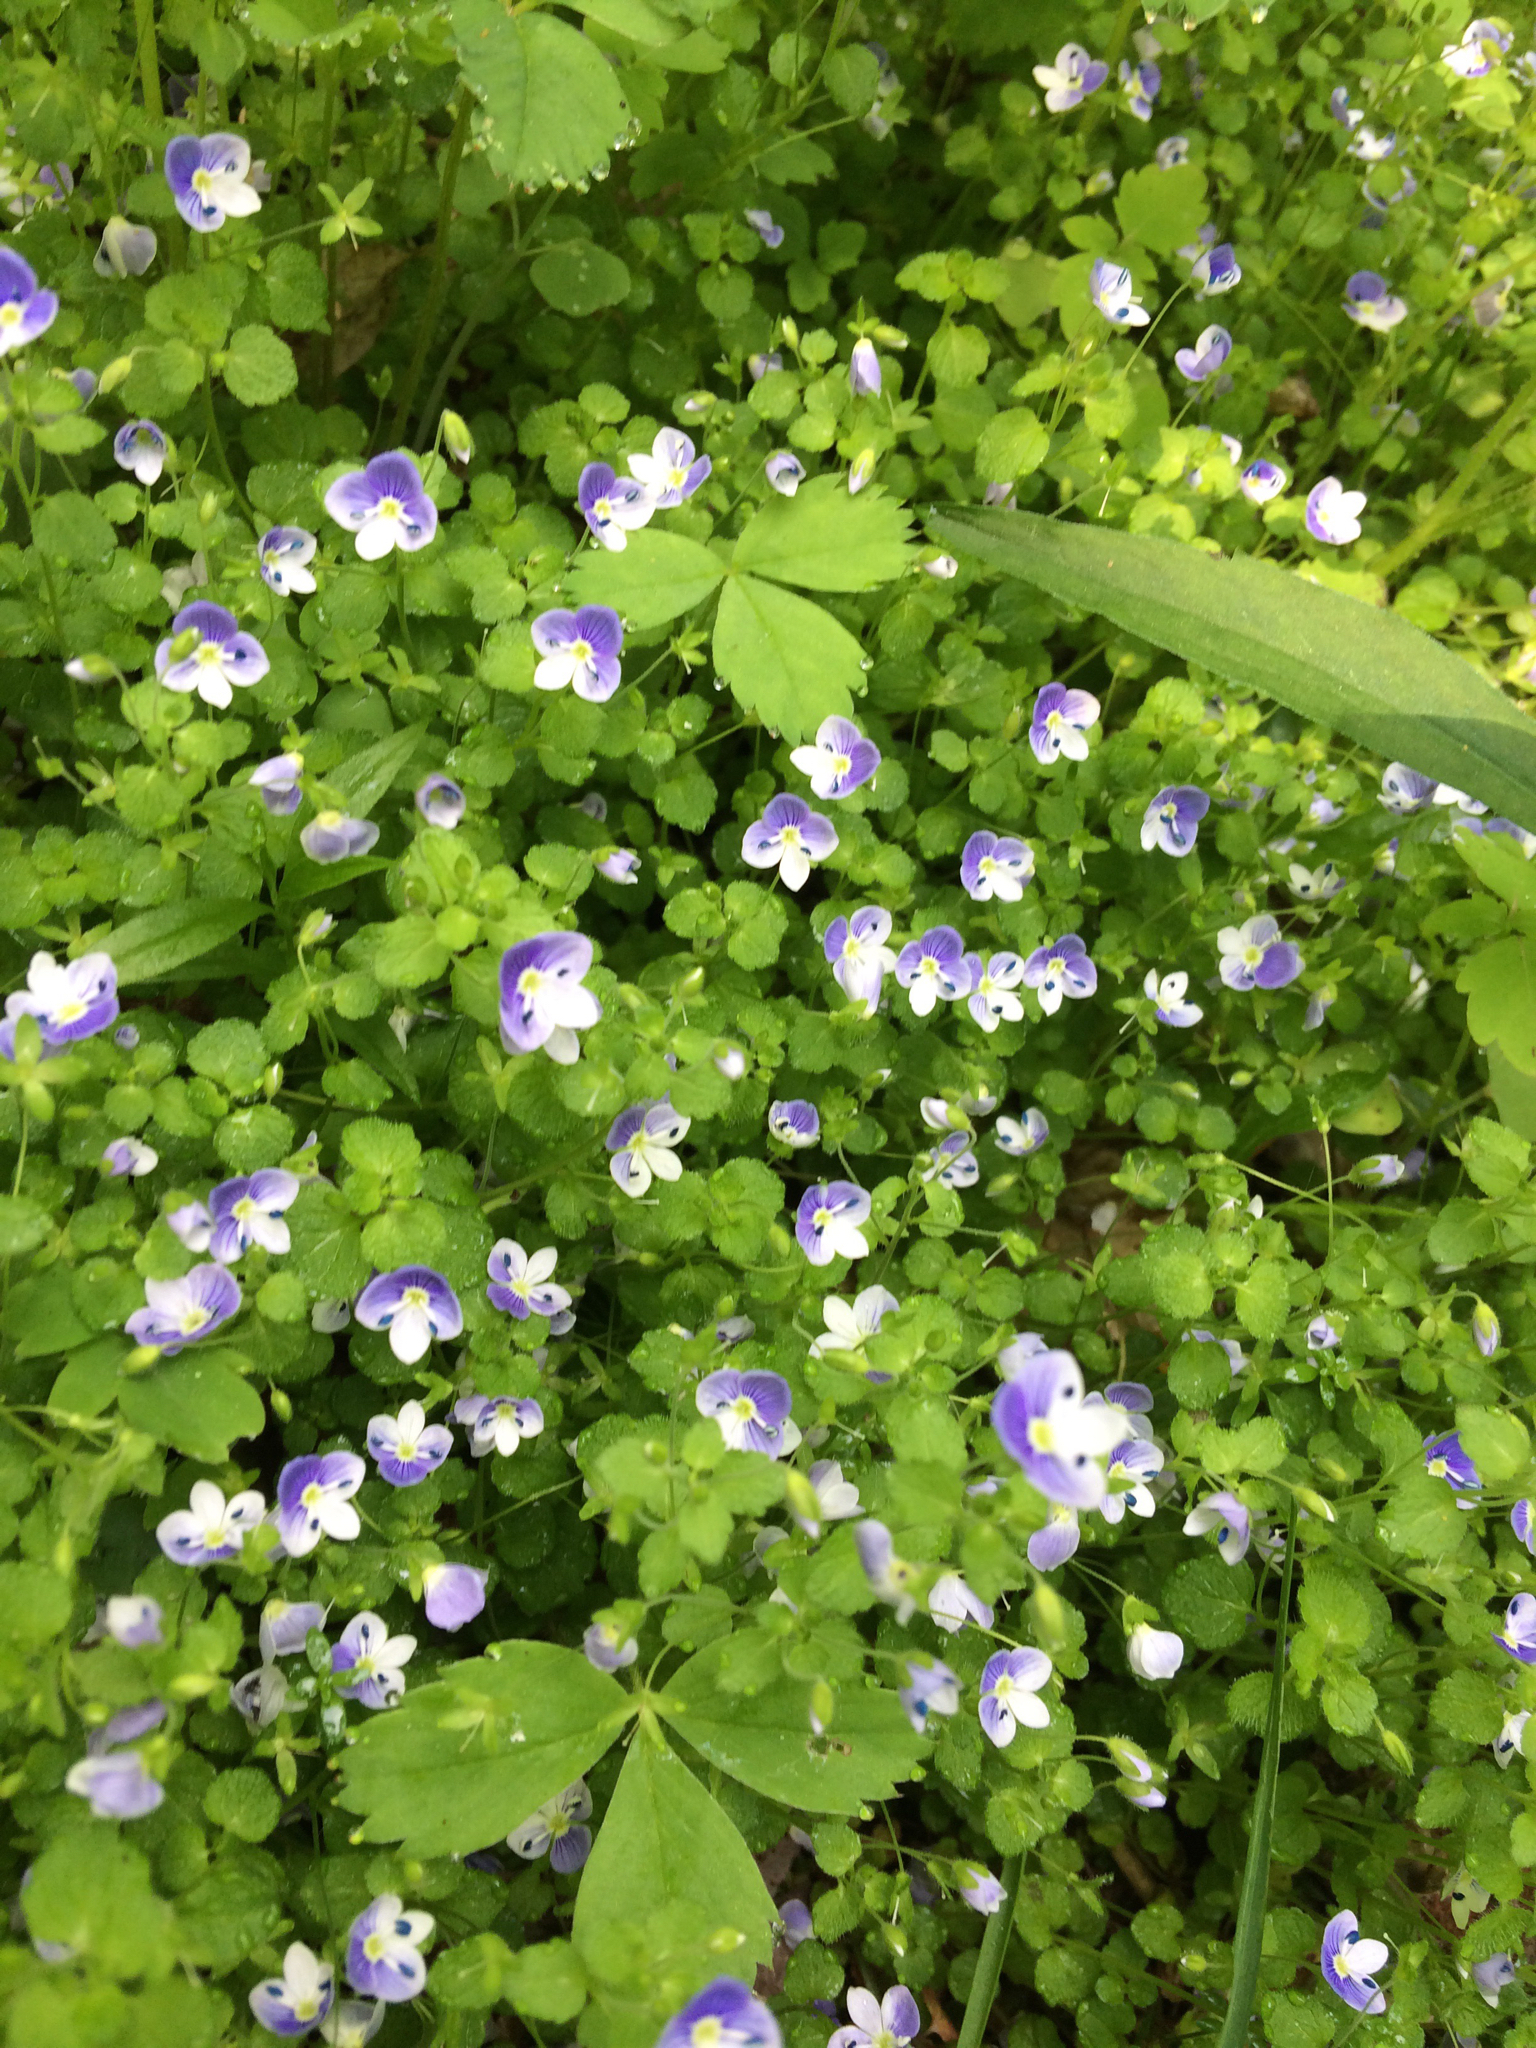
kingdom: Plantae
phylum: Tracheophyta
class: Magnoliopsida
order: Lamiales
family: Plantaginaceae
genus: Veronica
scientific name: Veronica filiformis
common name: Slender speedwell
